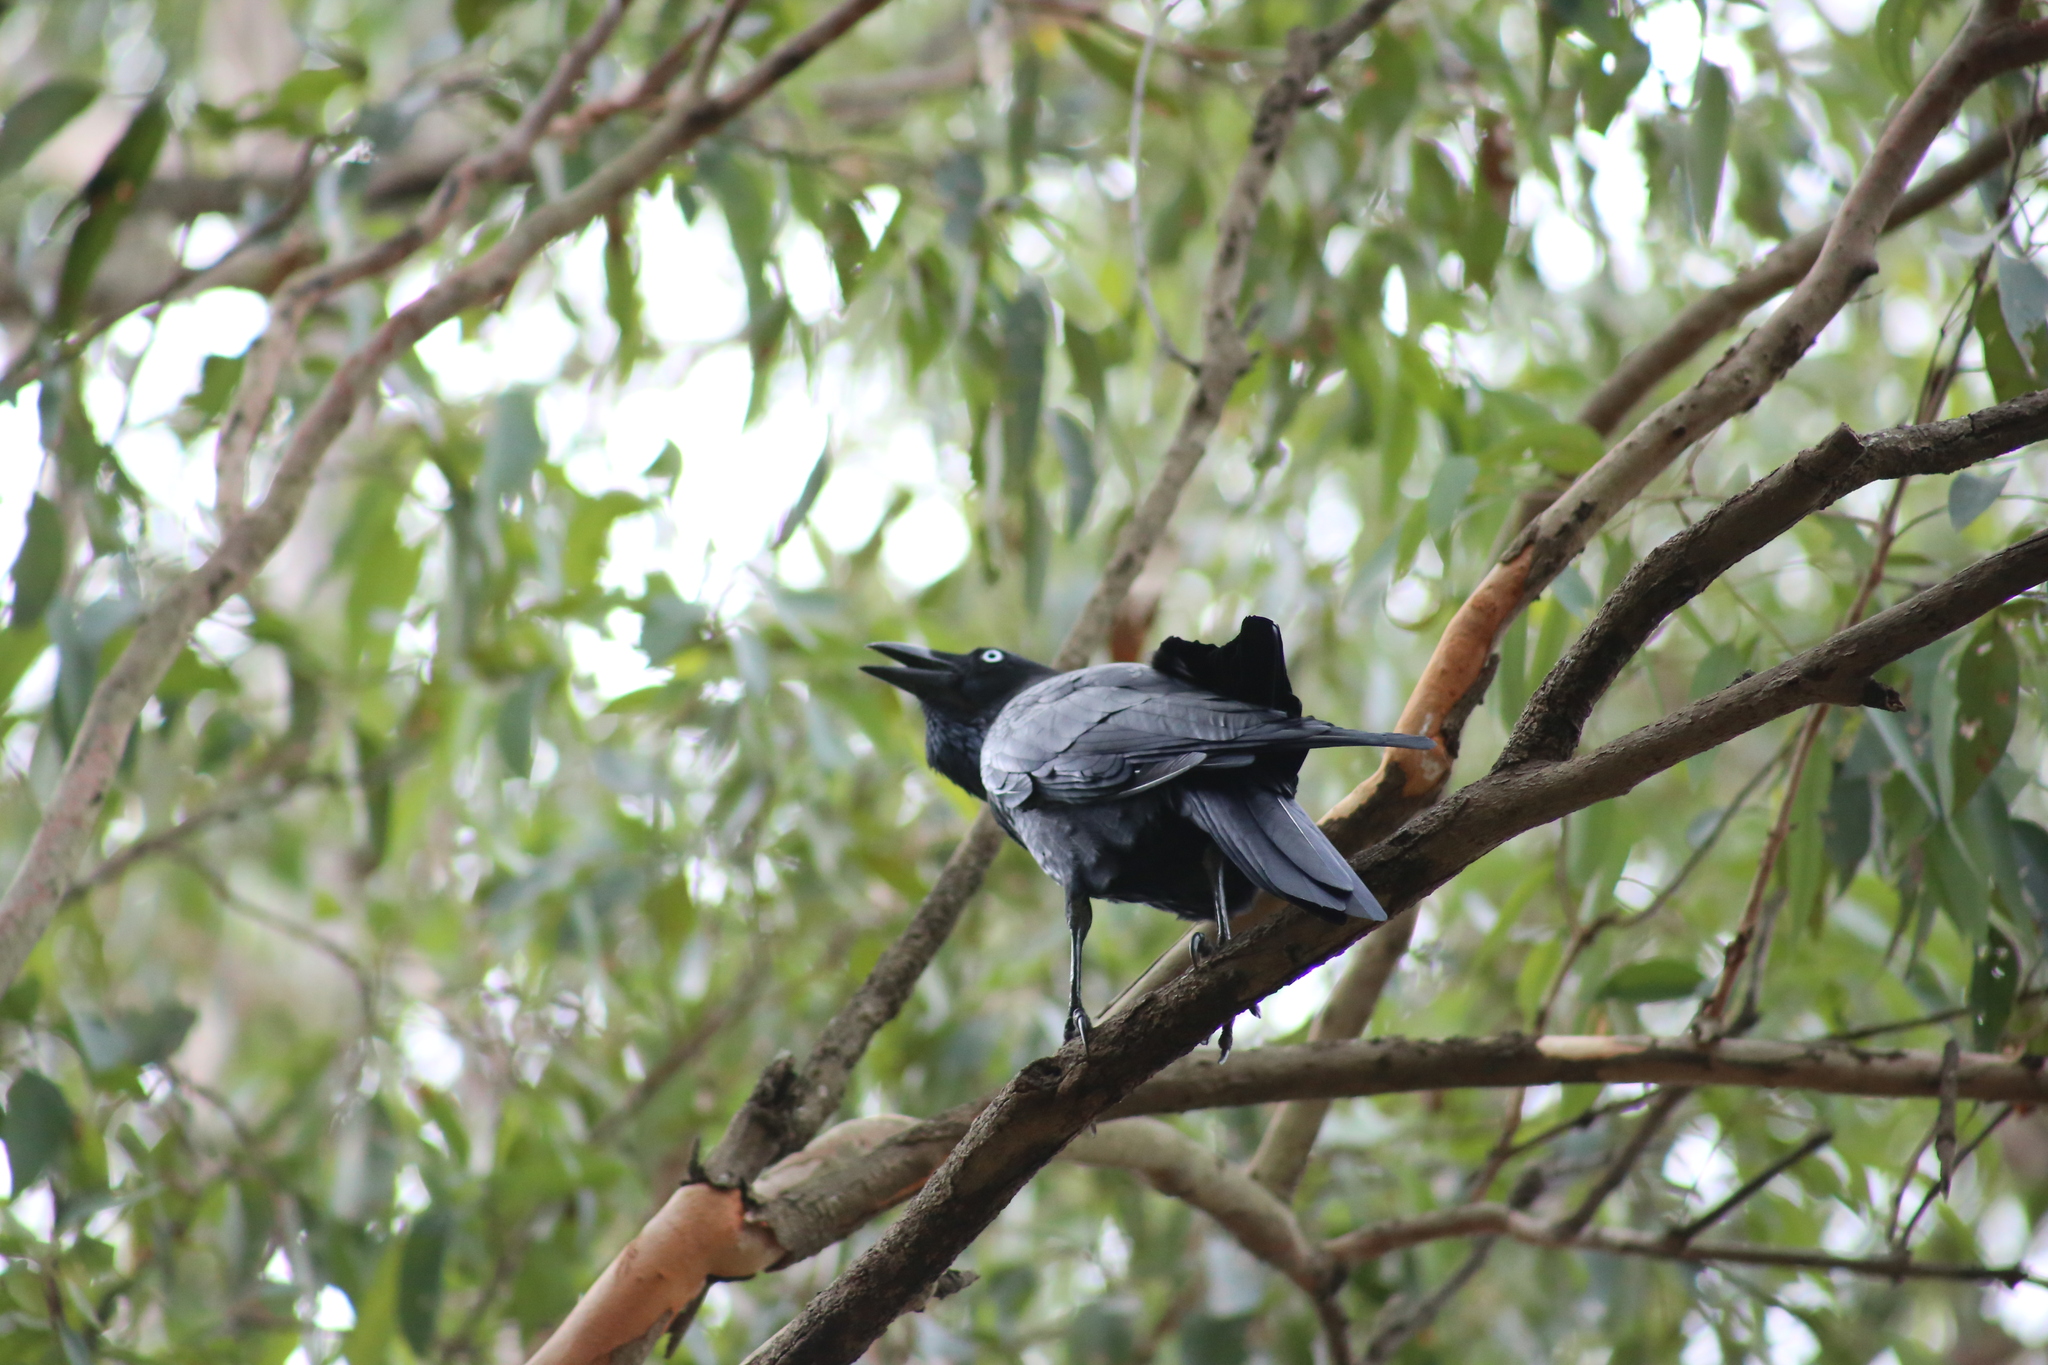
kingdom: Animalia
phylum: Chordata
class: Aves
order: Passeriformes
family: Corvidae
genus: Corvus
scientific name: Corvus orru
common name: Torresian crow
